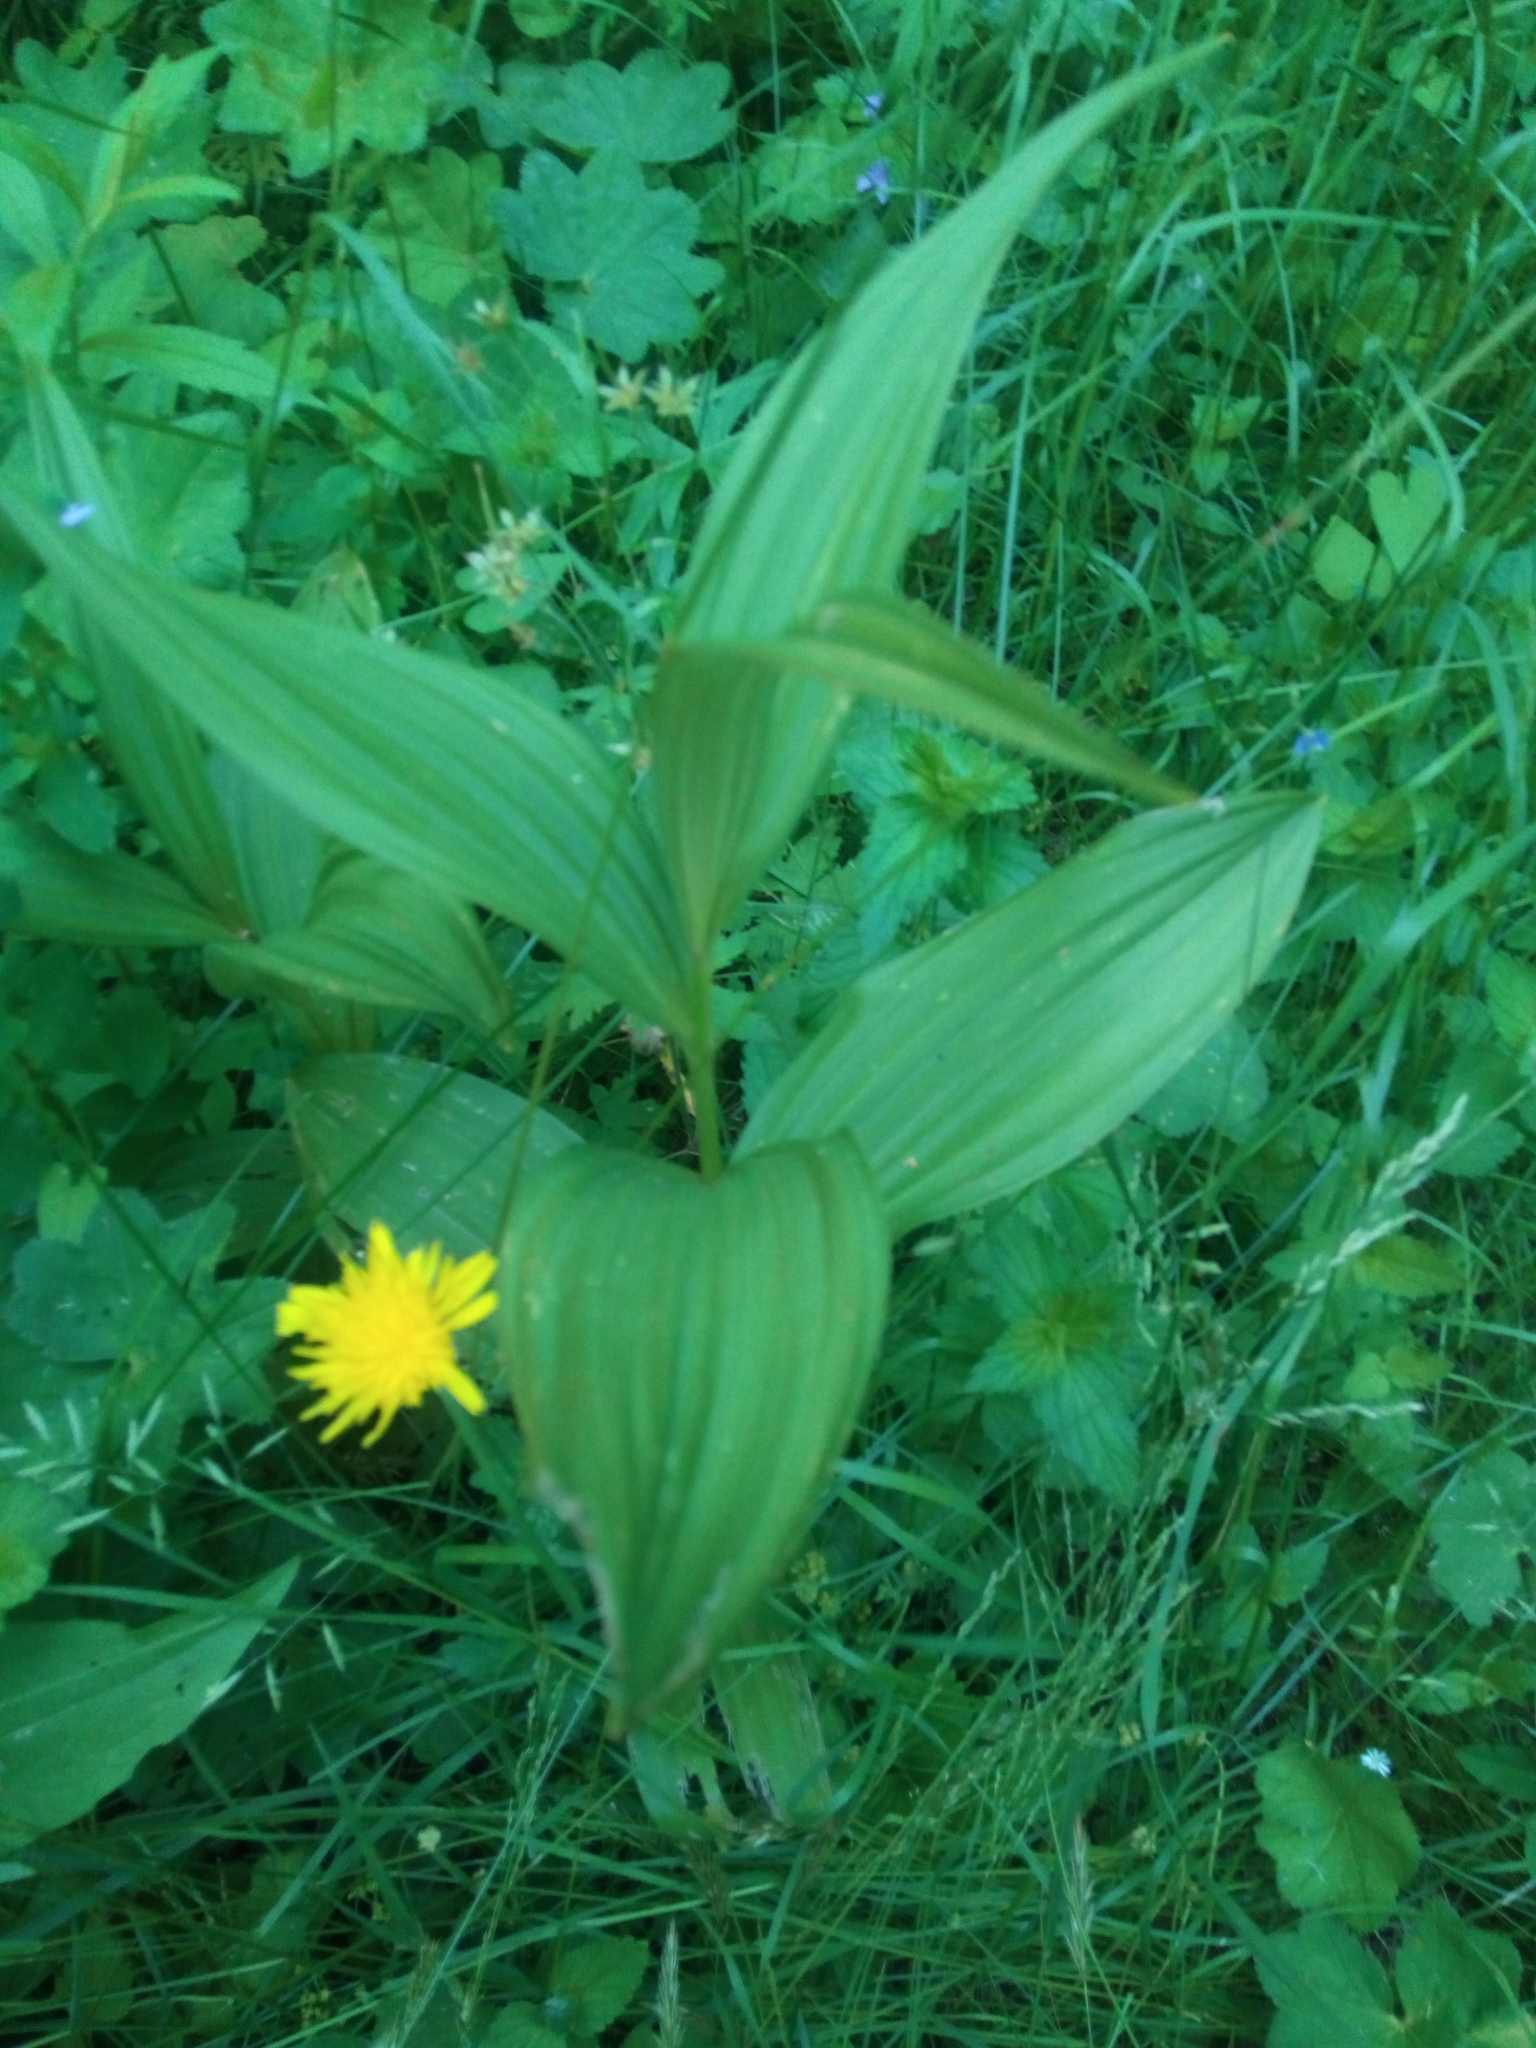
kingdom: Plantae
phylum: Tracheophyta
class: Liliopsida
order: Liliales
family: Melanthiaceae
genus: Veratrum
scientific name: Veratrum lobelianum
